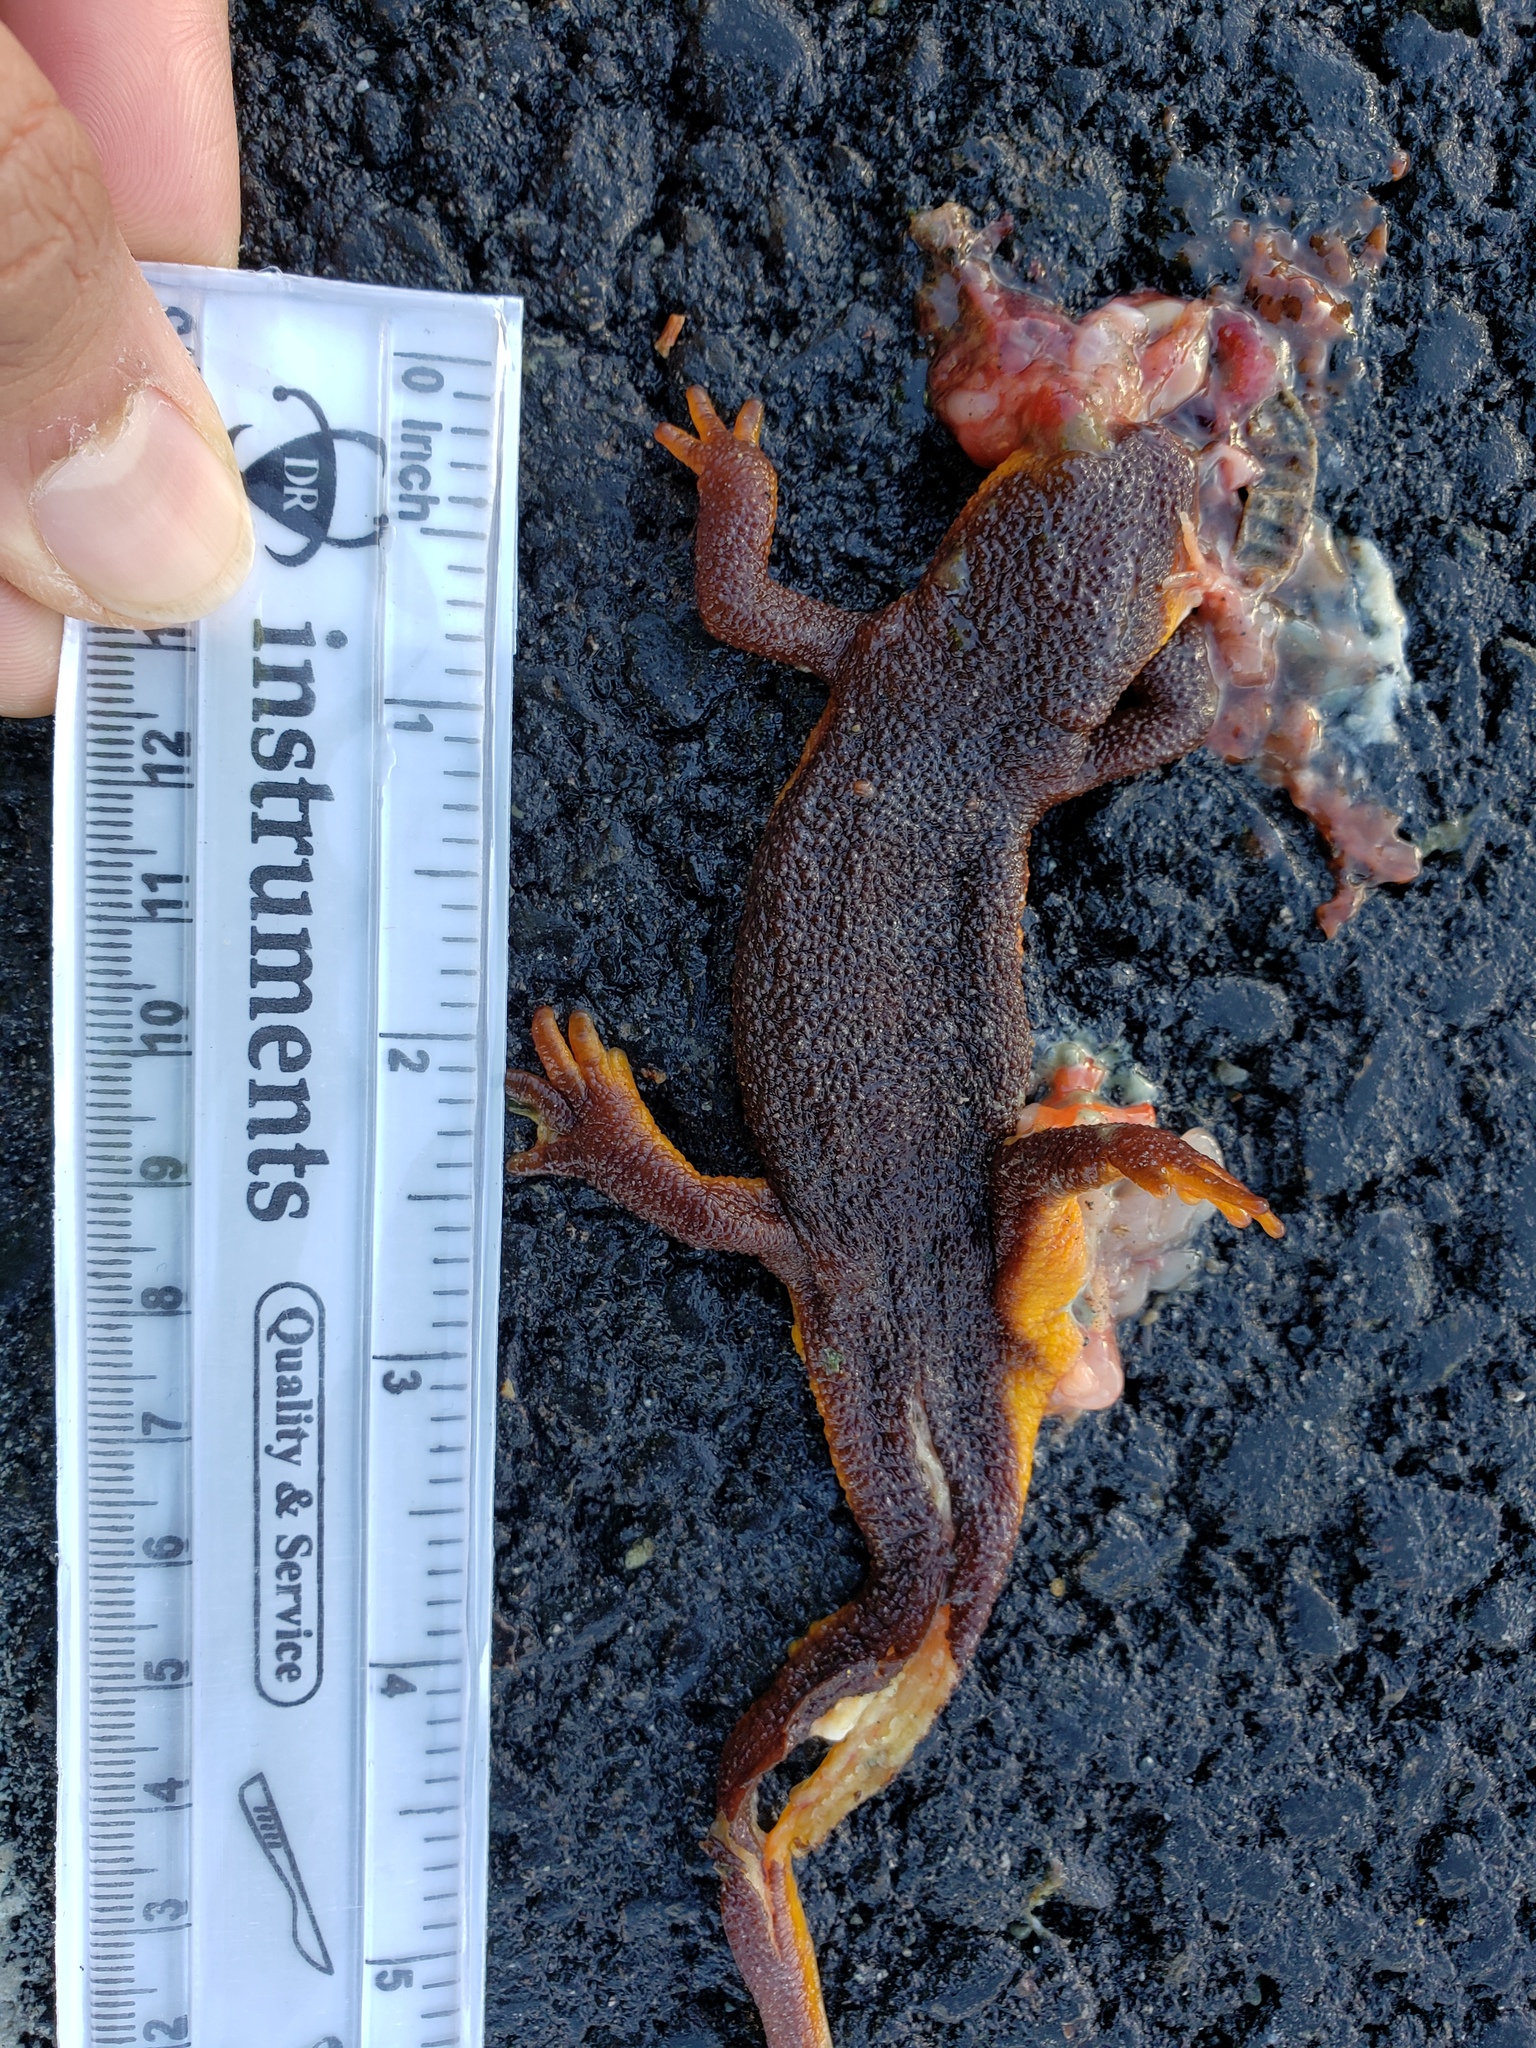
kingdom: Animalia
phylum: Chordata
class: Amphibia
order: Caudata
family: Salamandridae
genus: Taricha
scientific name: Taricha
